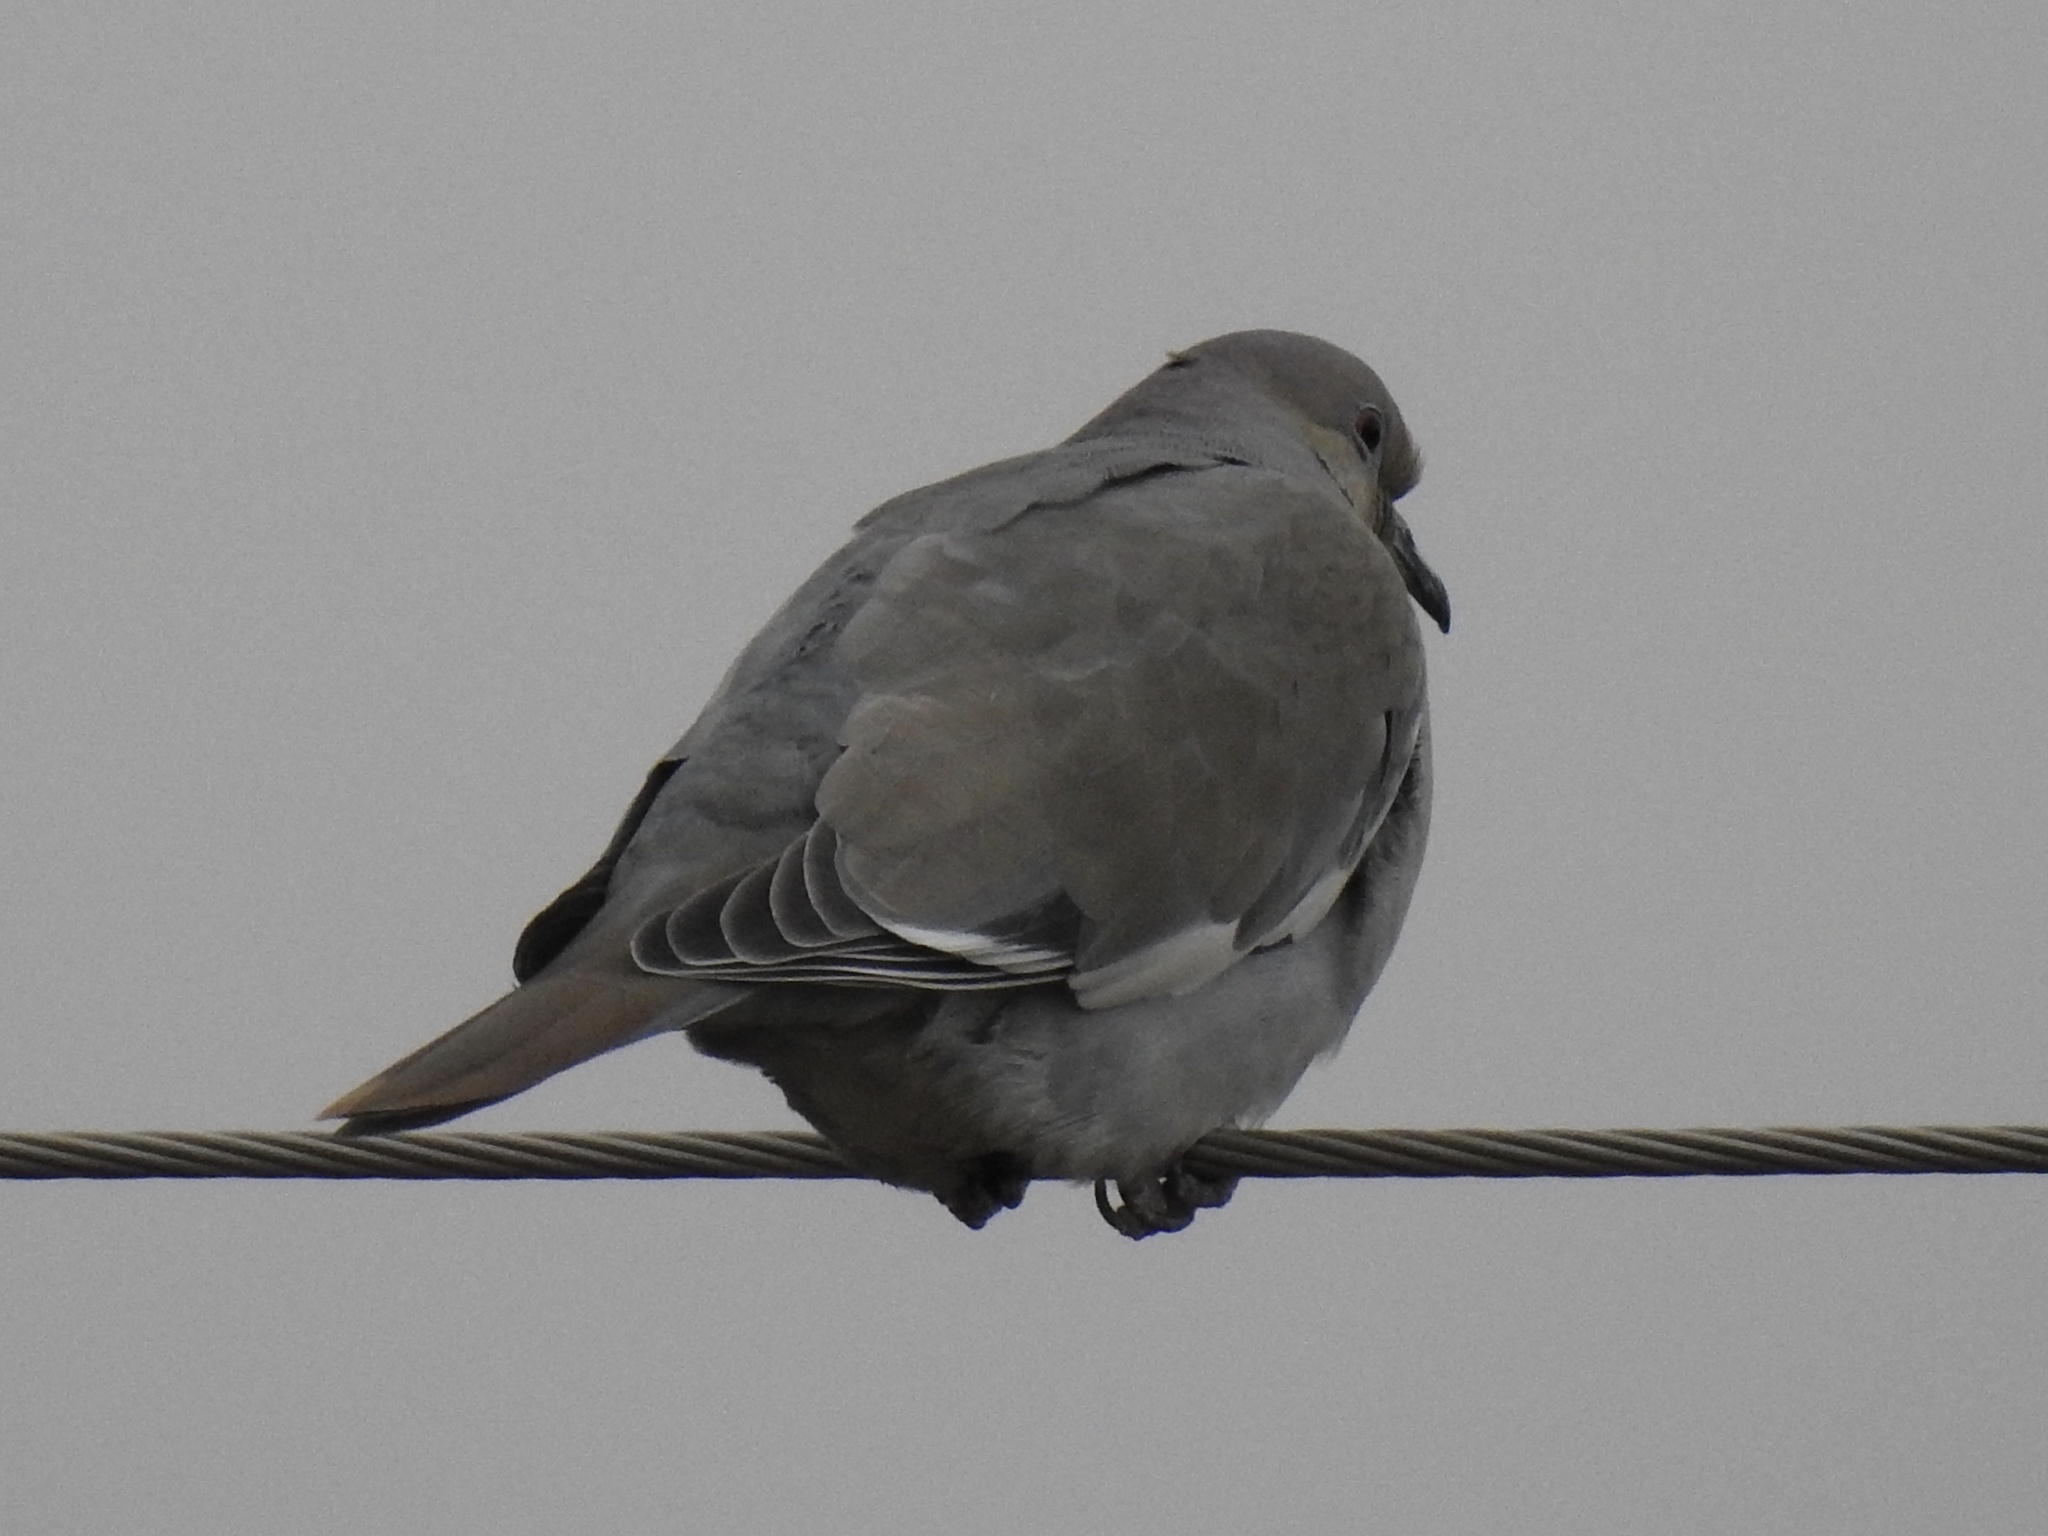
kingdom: Animalia
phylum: Chordata
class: Aves
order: Columbiformes
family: Columbidae
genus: Zenaida
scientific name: Zenaida asiatica
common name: White-winged dove
